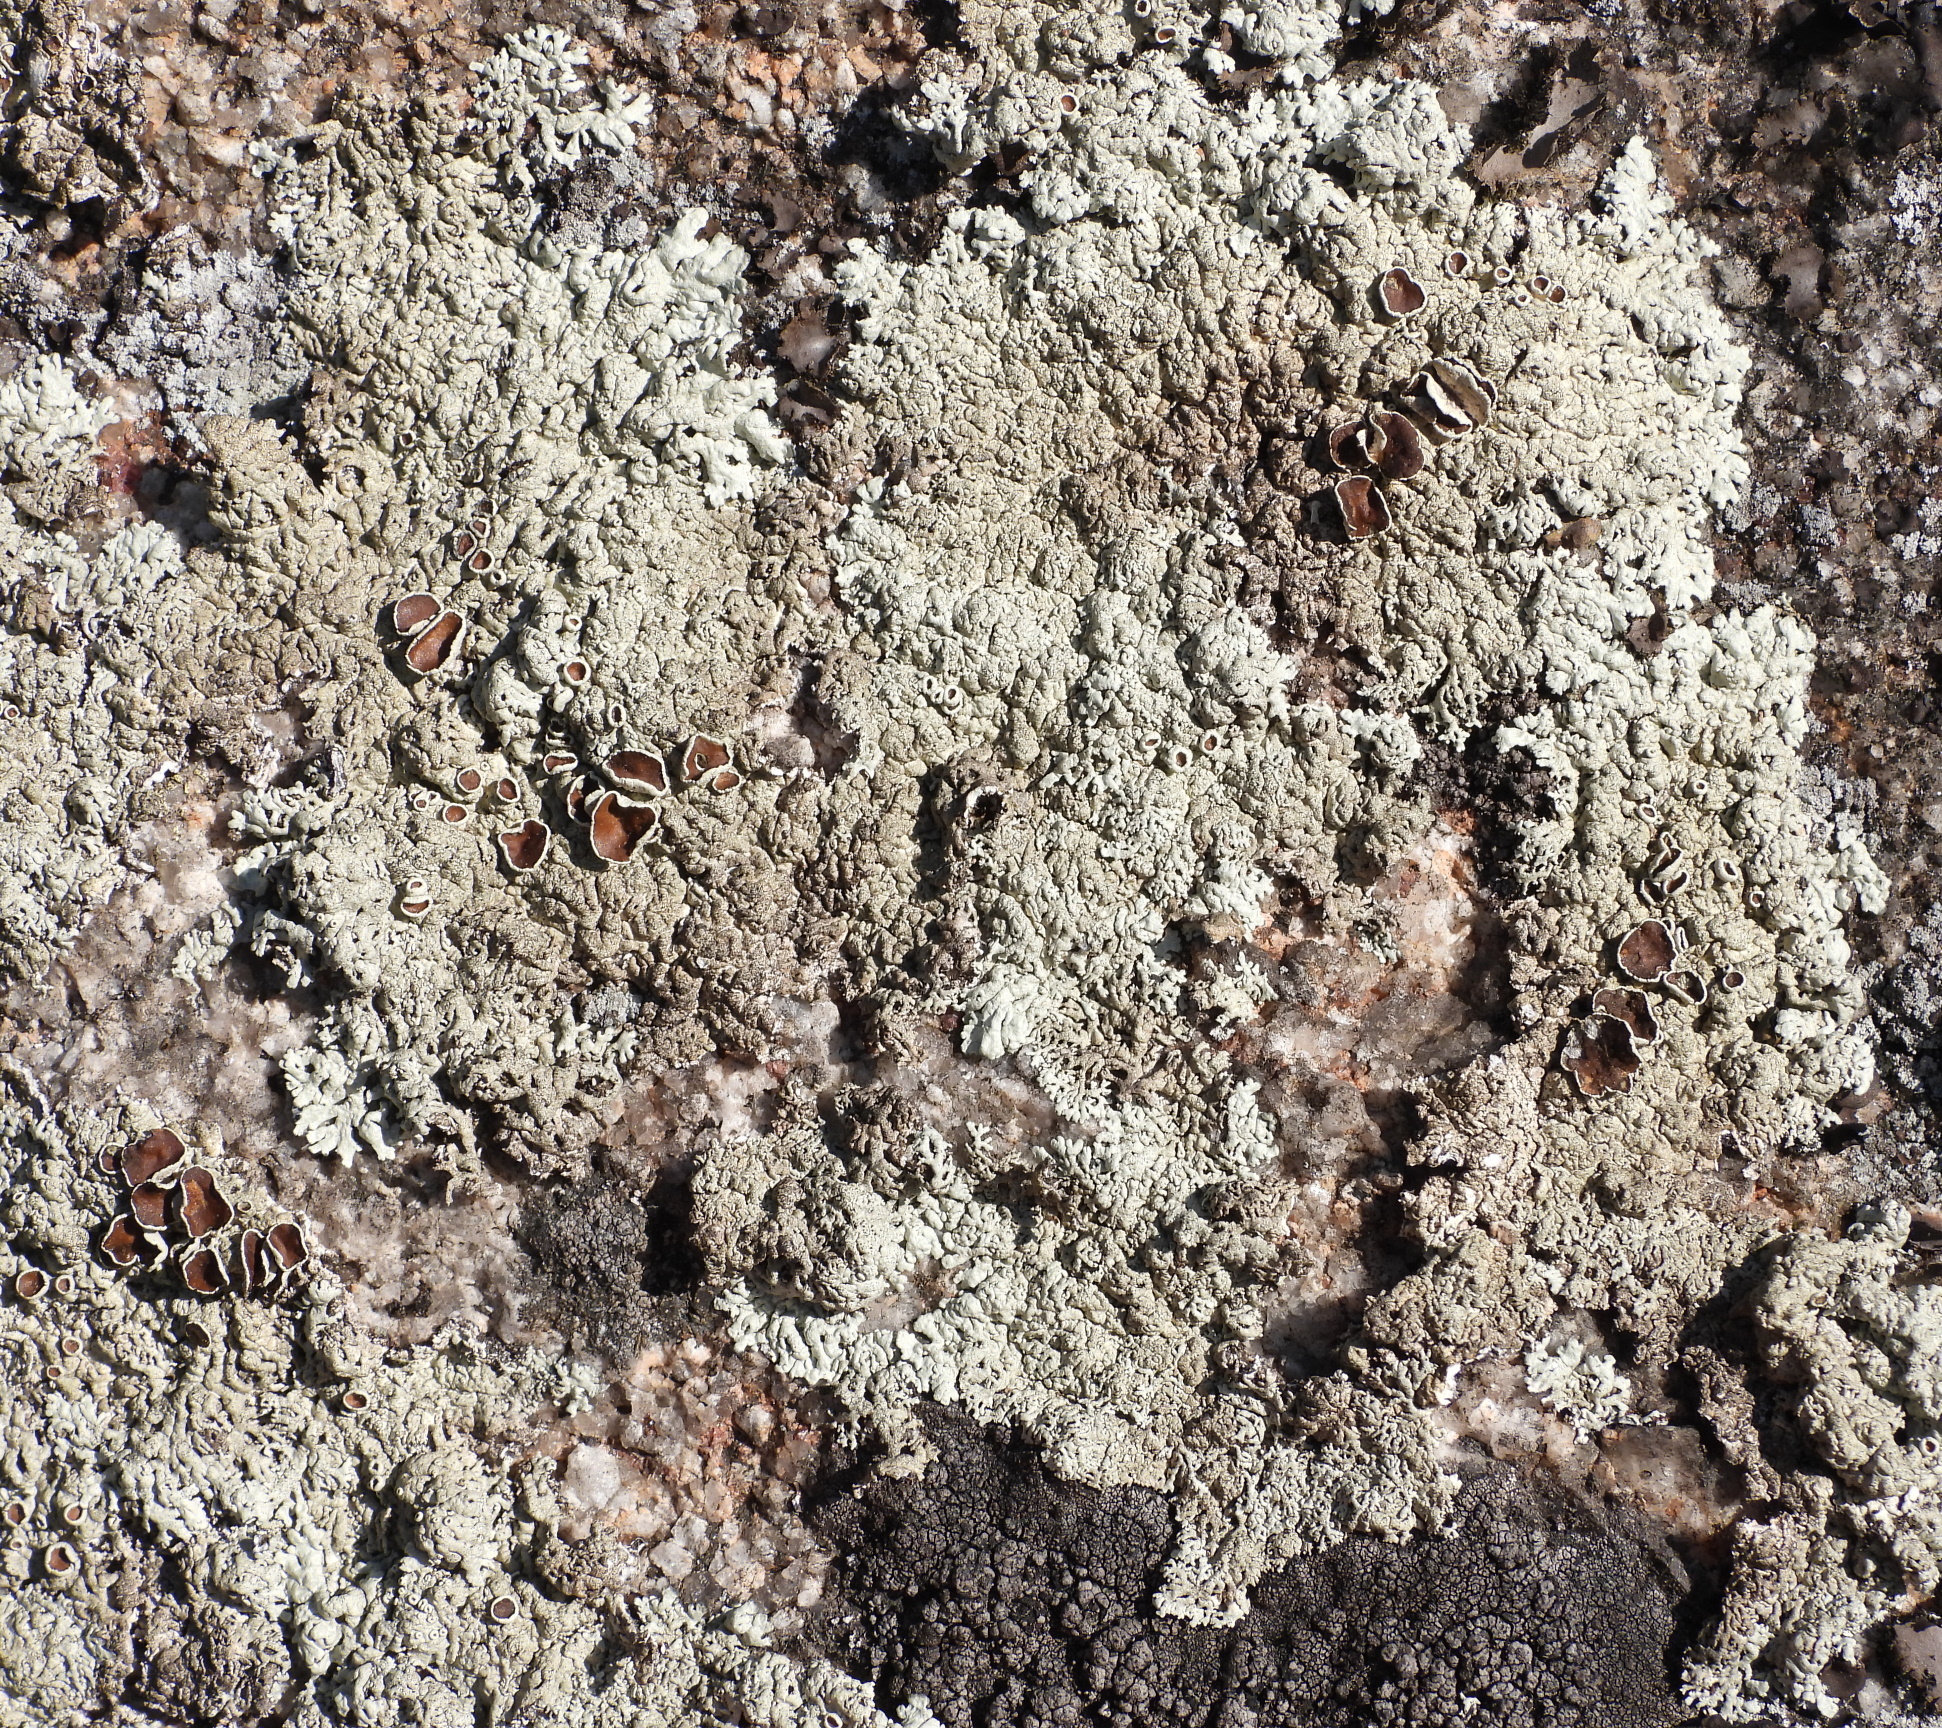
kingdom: Fungi
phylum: Ascomycota
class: Lecanoromycetes
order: Lecanorales
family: Parmeliaceae
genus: Arctoparmelia
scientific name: Arctoparmelia centrifuga
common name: Concentric ring lichen
